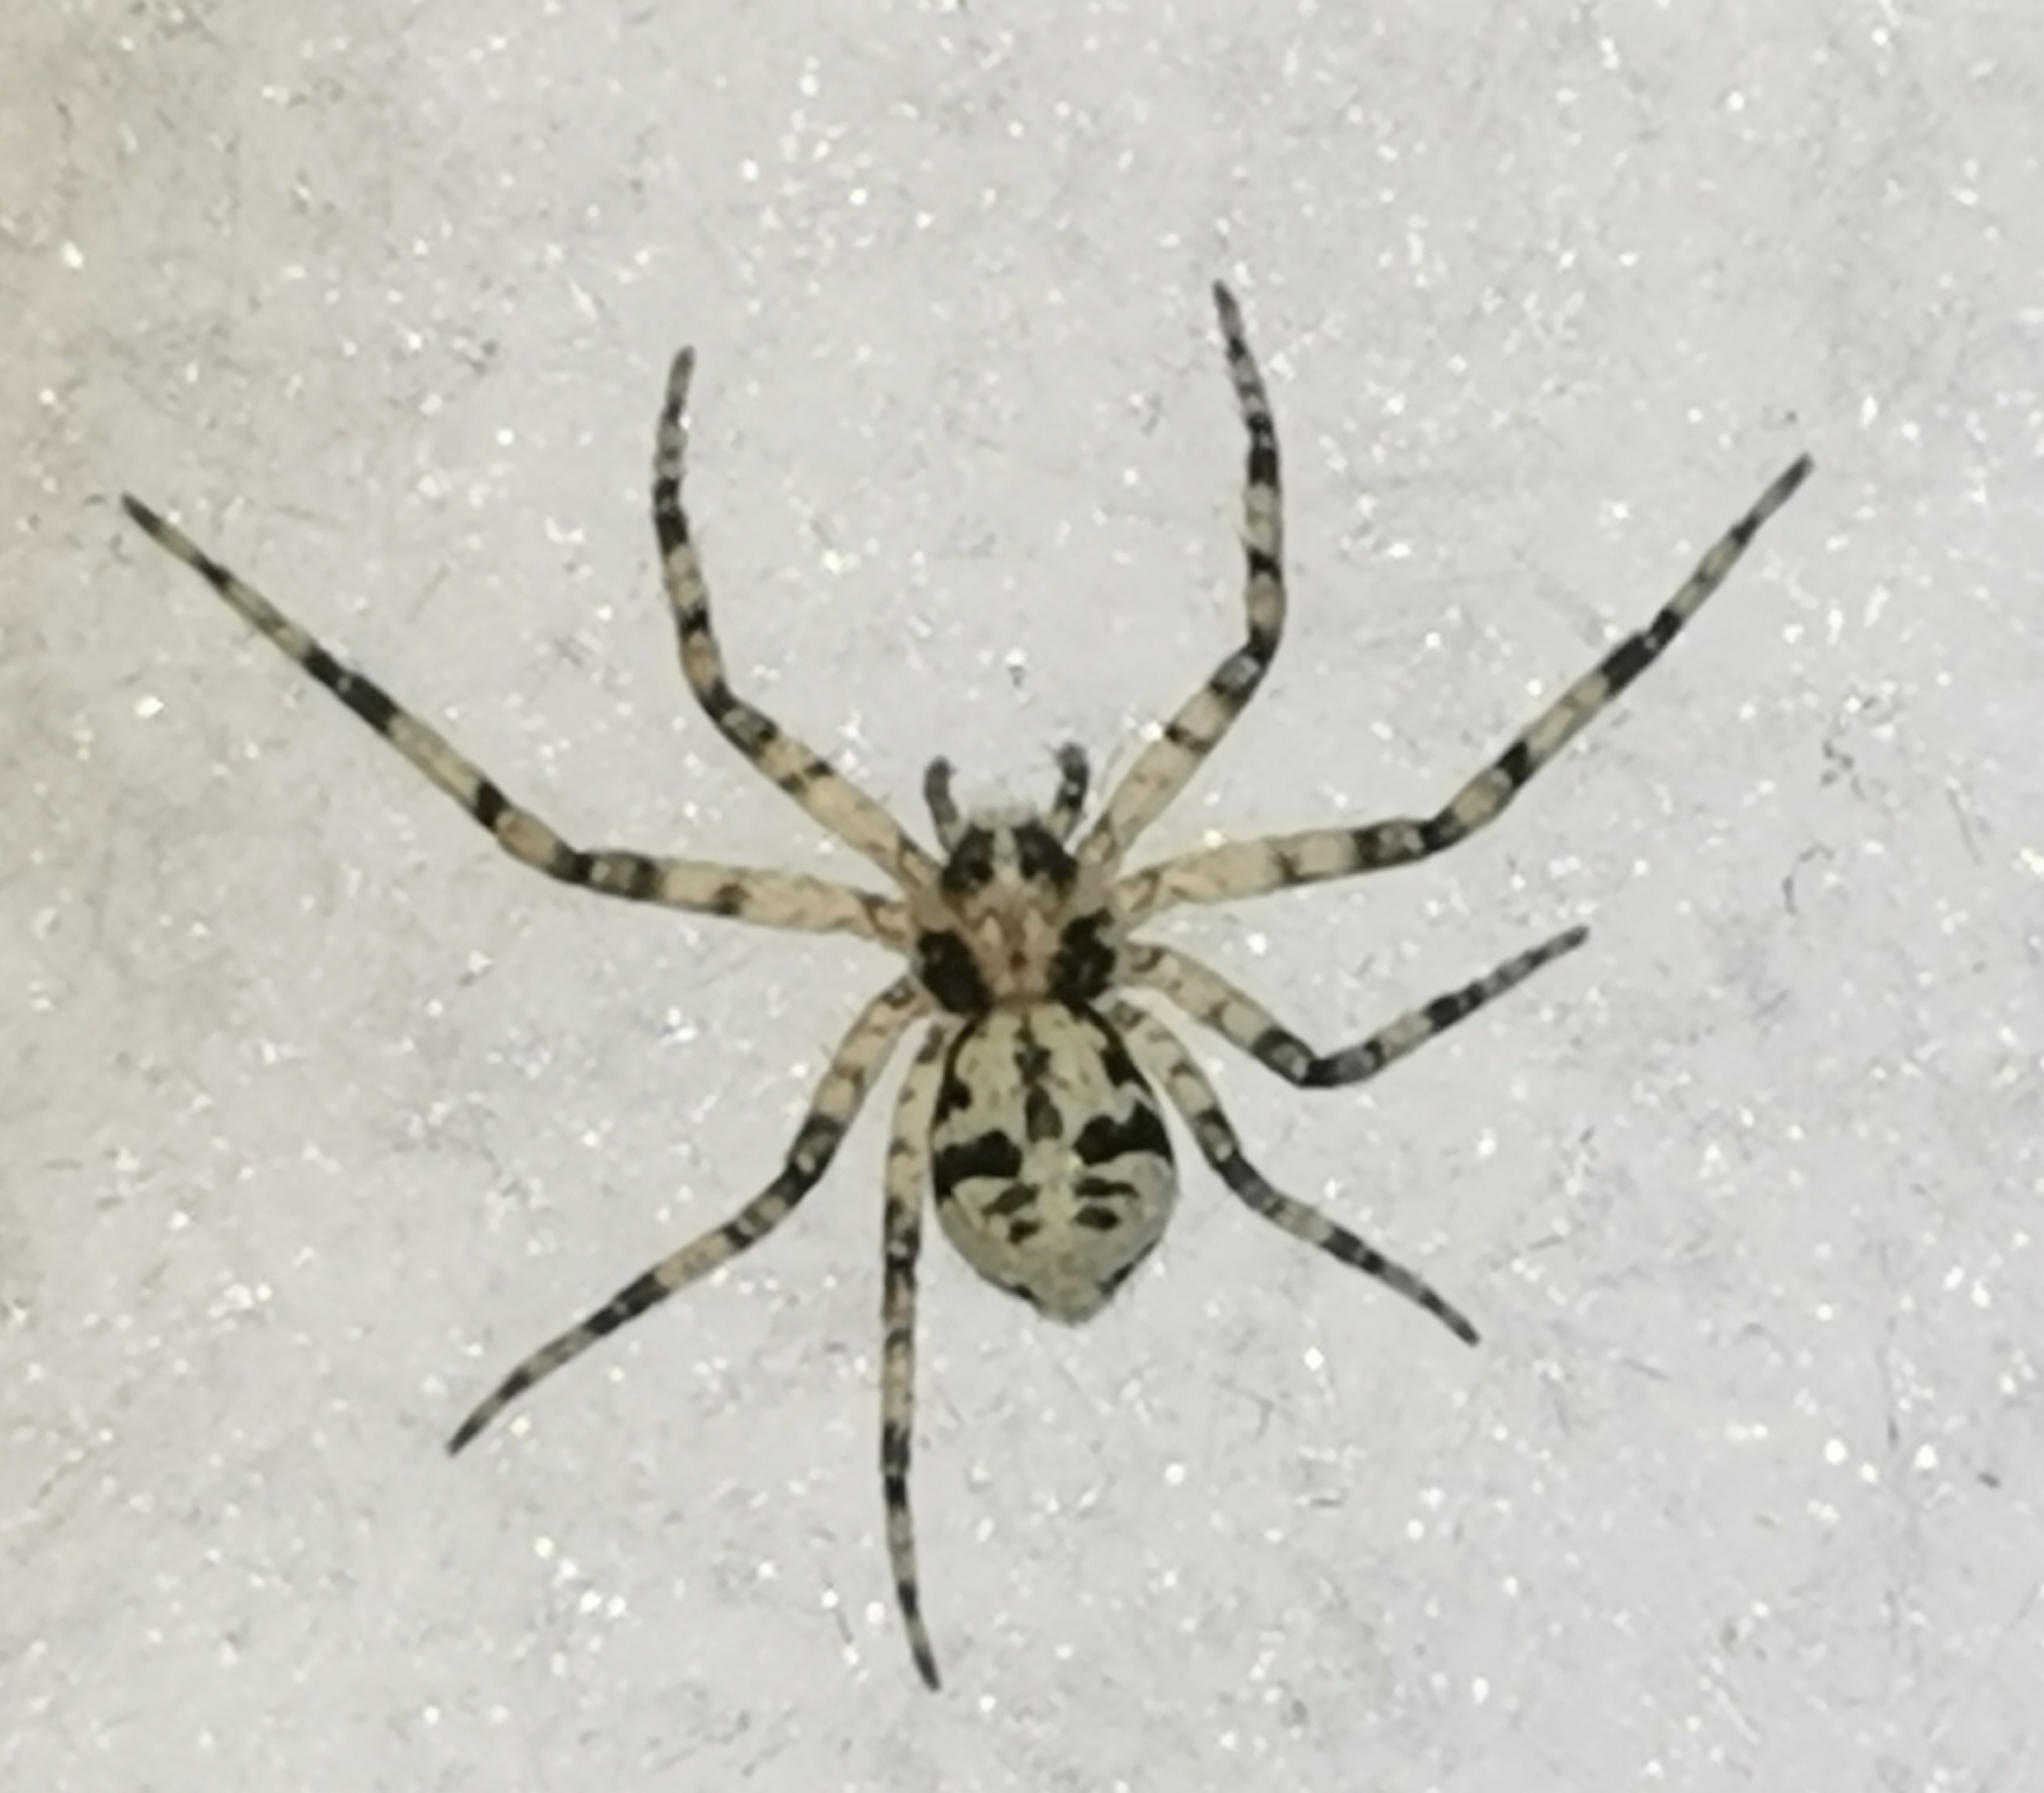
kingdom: Animalia
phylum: Arthropoda
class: Arachnida
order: Araneae
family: Philodromidae
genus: Philodromus
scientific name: Philodromus margaritatus
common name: Lichen running-spider
